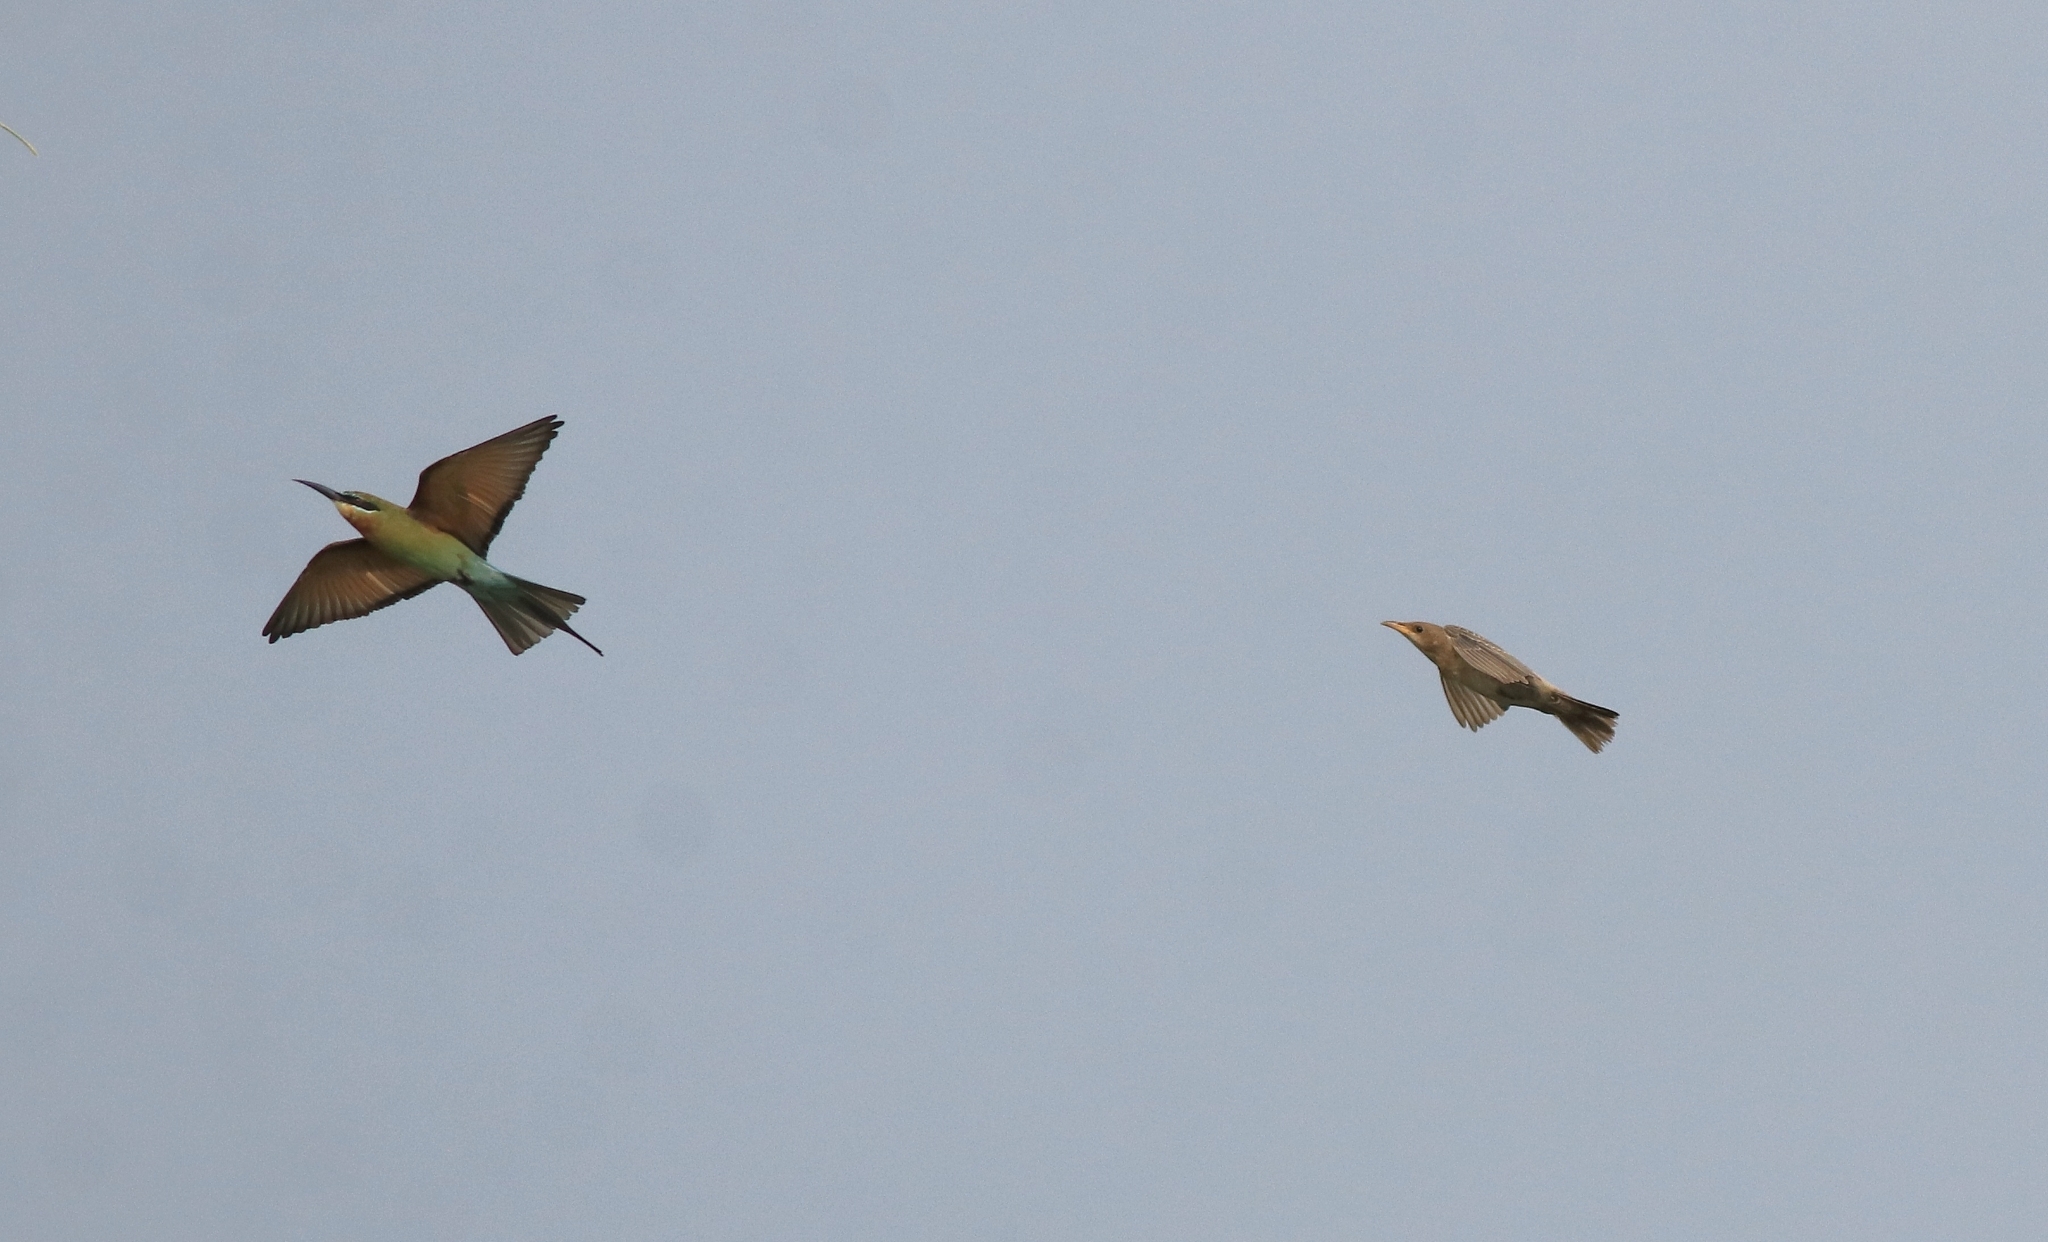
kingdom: Animalia
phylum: Chordata
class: Aves
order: Coraciiformes
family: Meropidae
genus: Merops
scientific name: Merops philippinus
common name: Blue-tailed bee-eater
